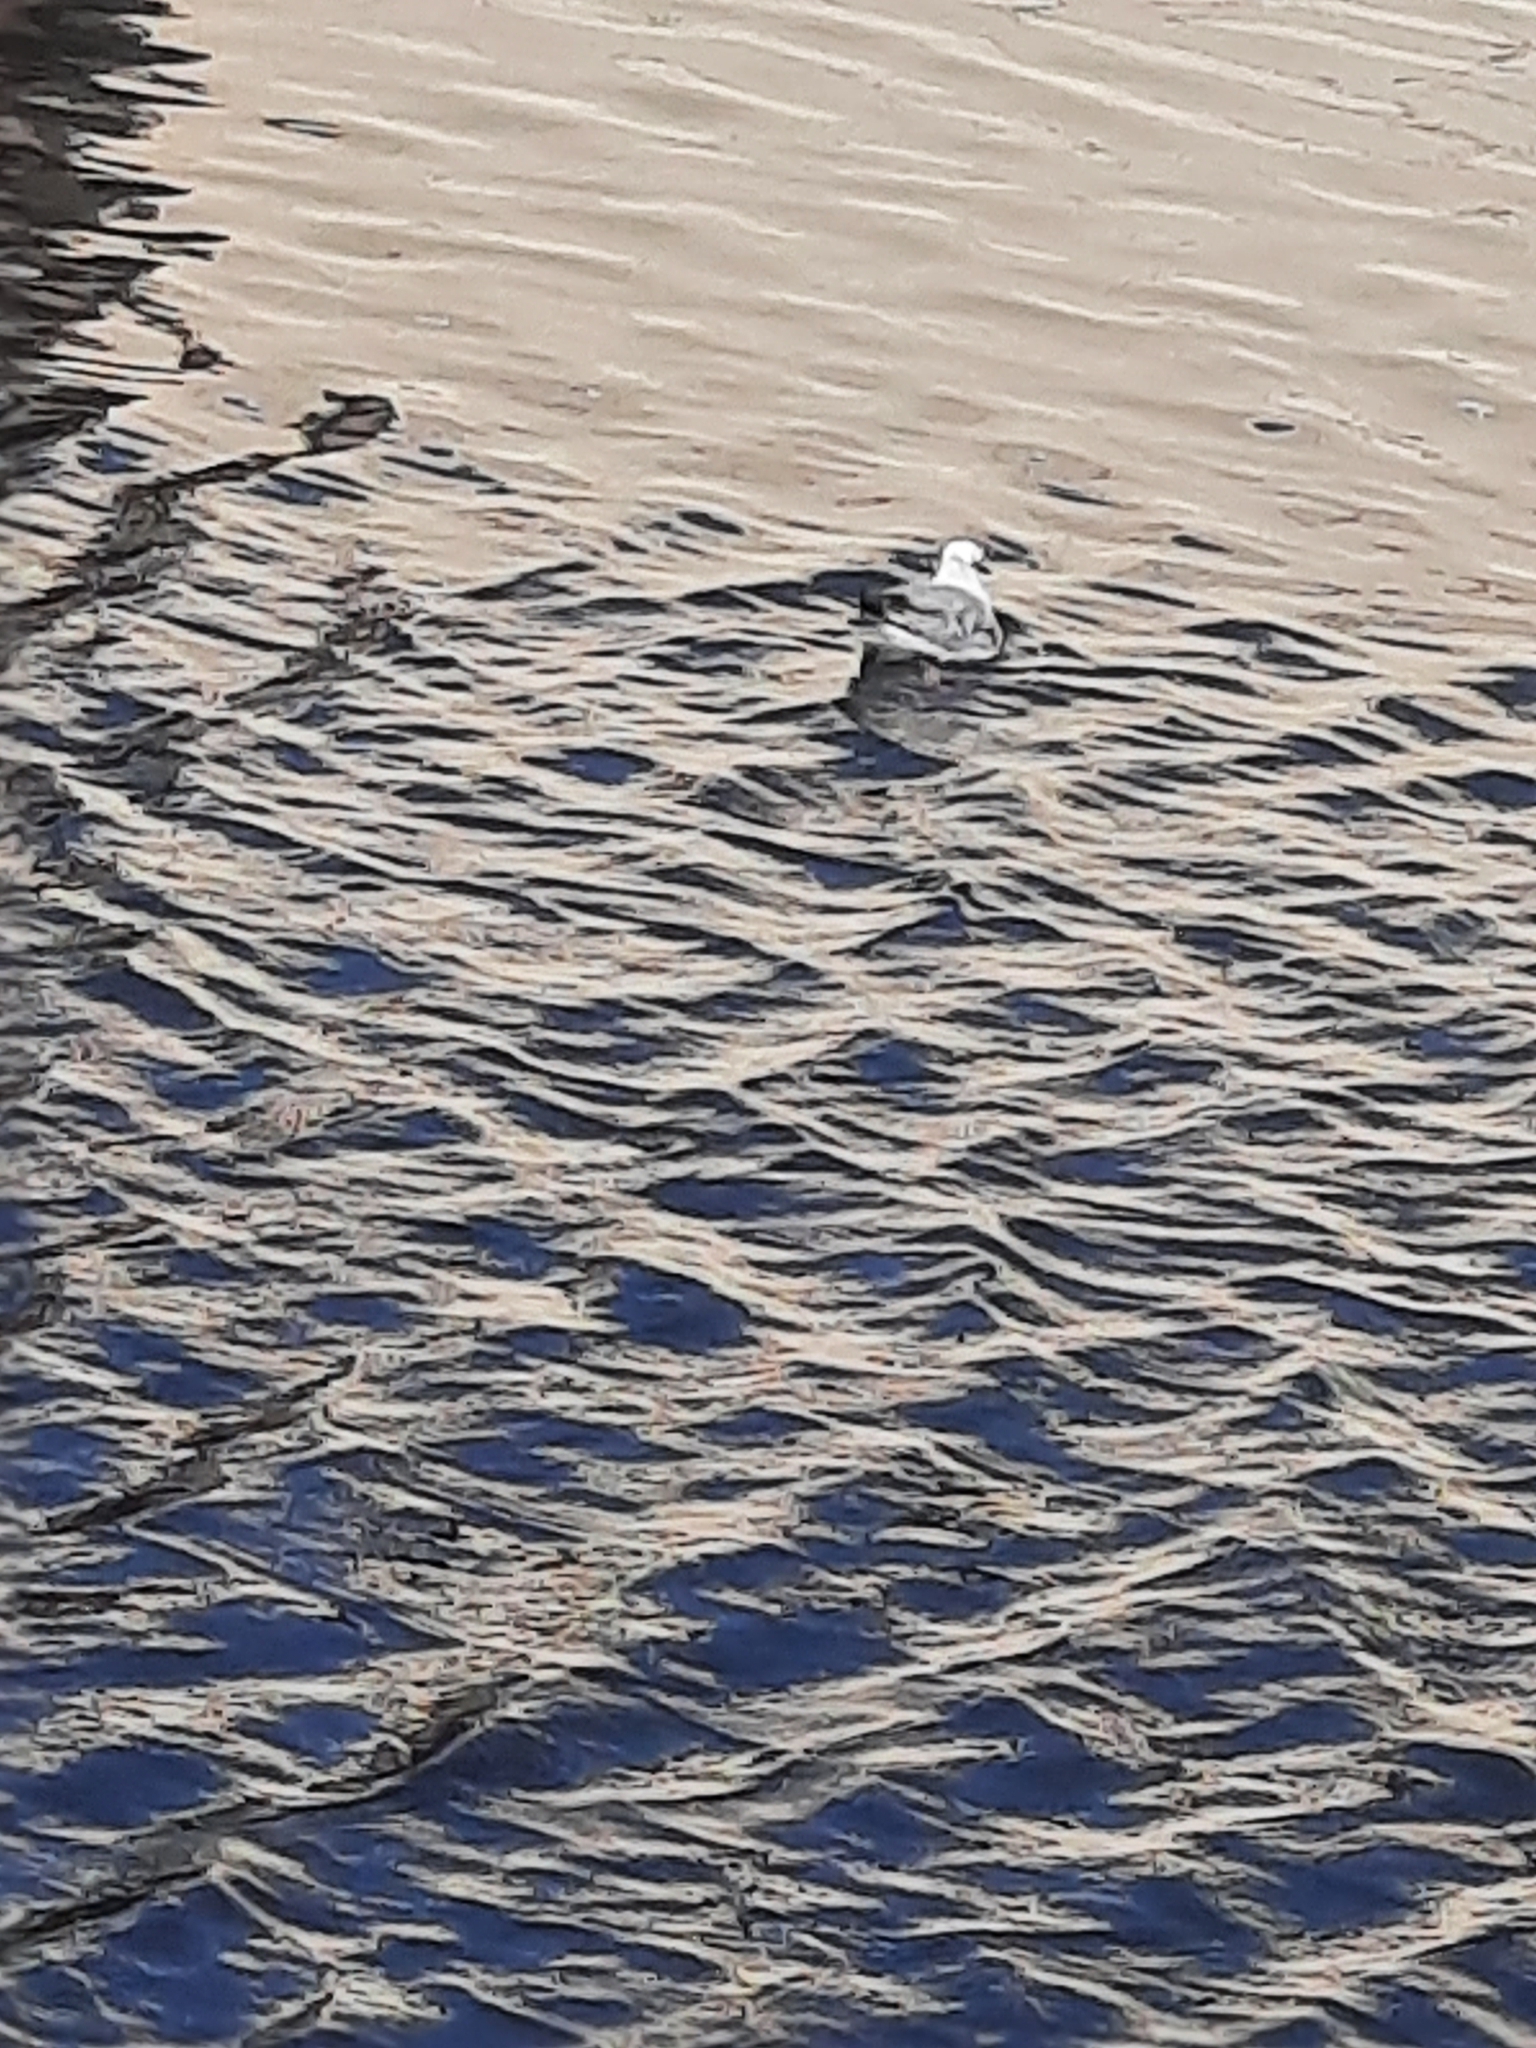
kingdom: Animalia
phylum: Chordata
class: Aves
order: Charadriiformes
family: Laridae
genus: Chroicocephalus
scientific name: Chroicocephalus philadelphia
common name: Bonaparte's gull
